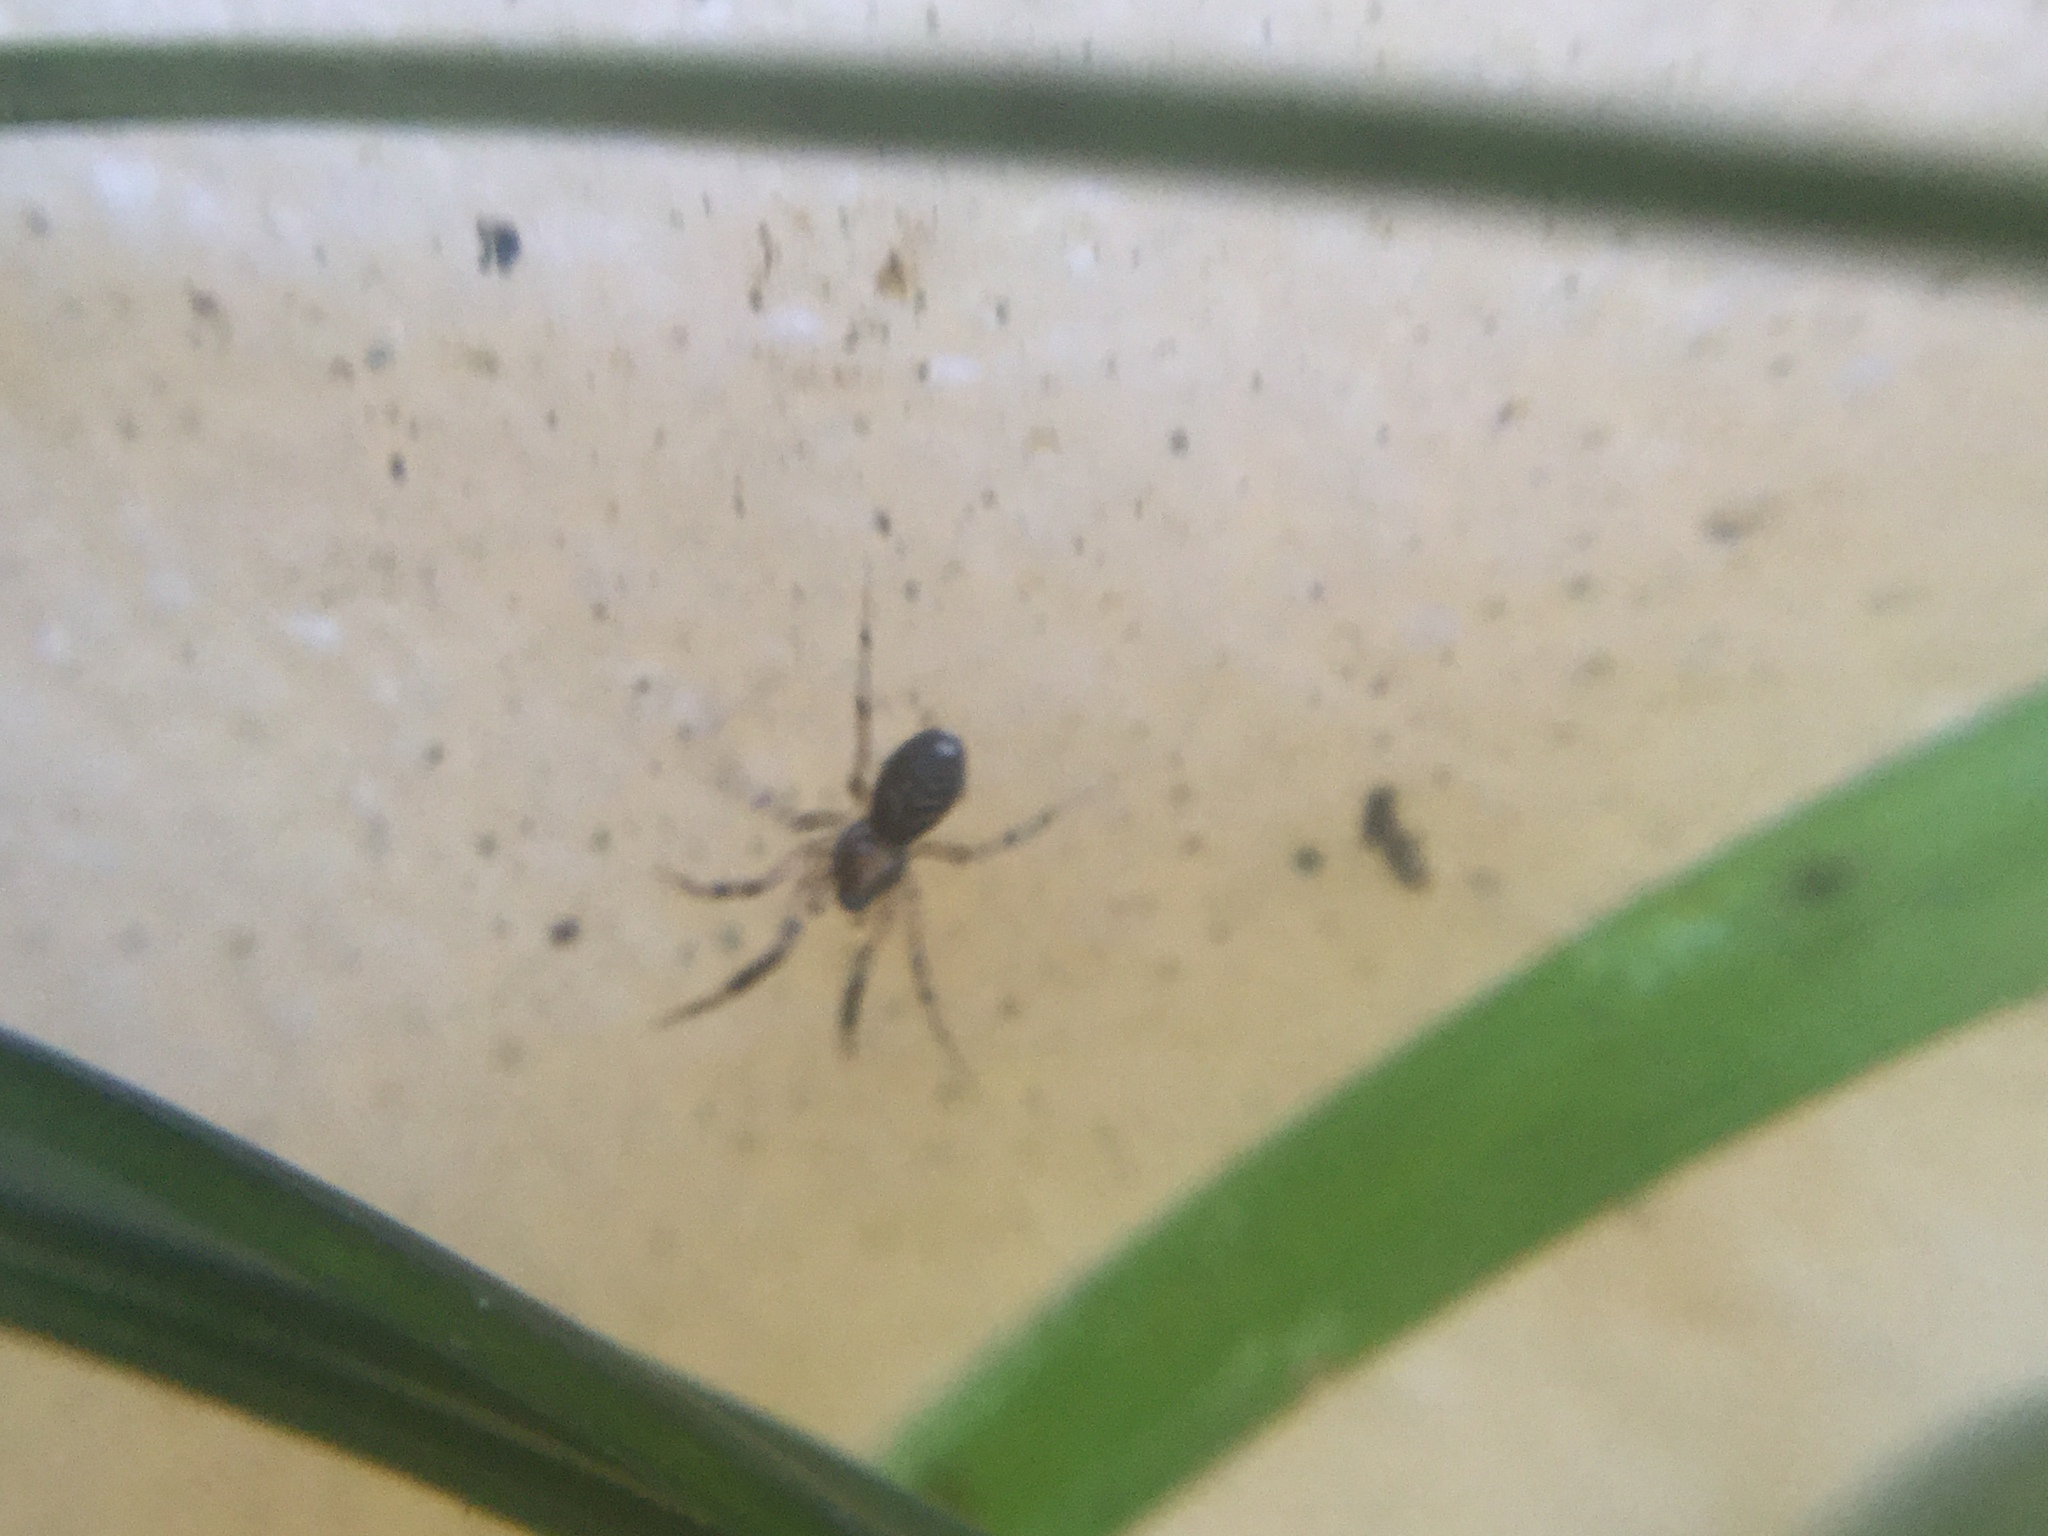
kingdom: Animalia
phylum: Arthropoda
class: Arachnida
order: Araneae
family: Phrurolithidae
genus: Phrurotimpus
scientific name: Phrurotimpus borealis
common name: Greater ant-mimic corinne spider
